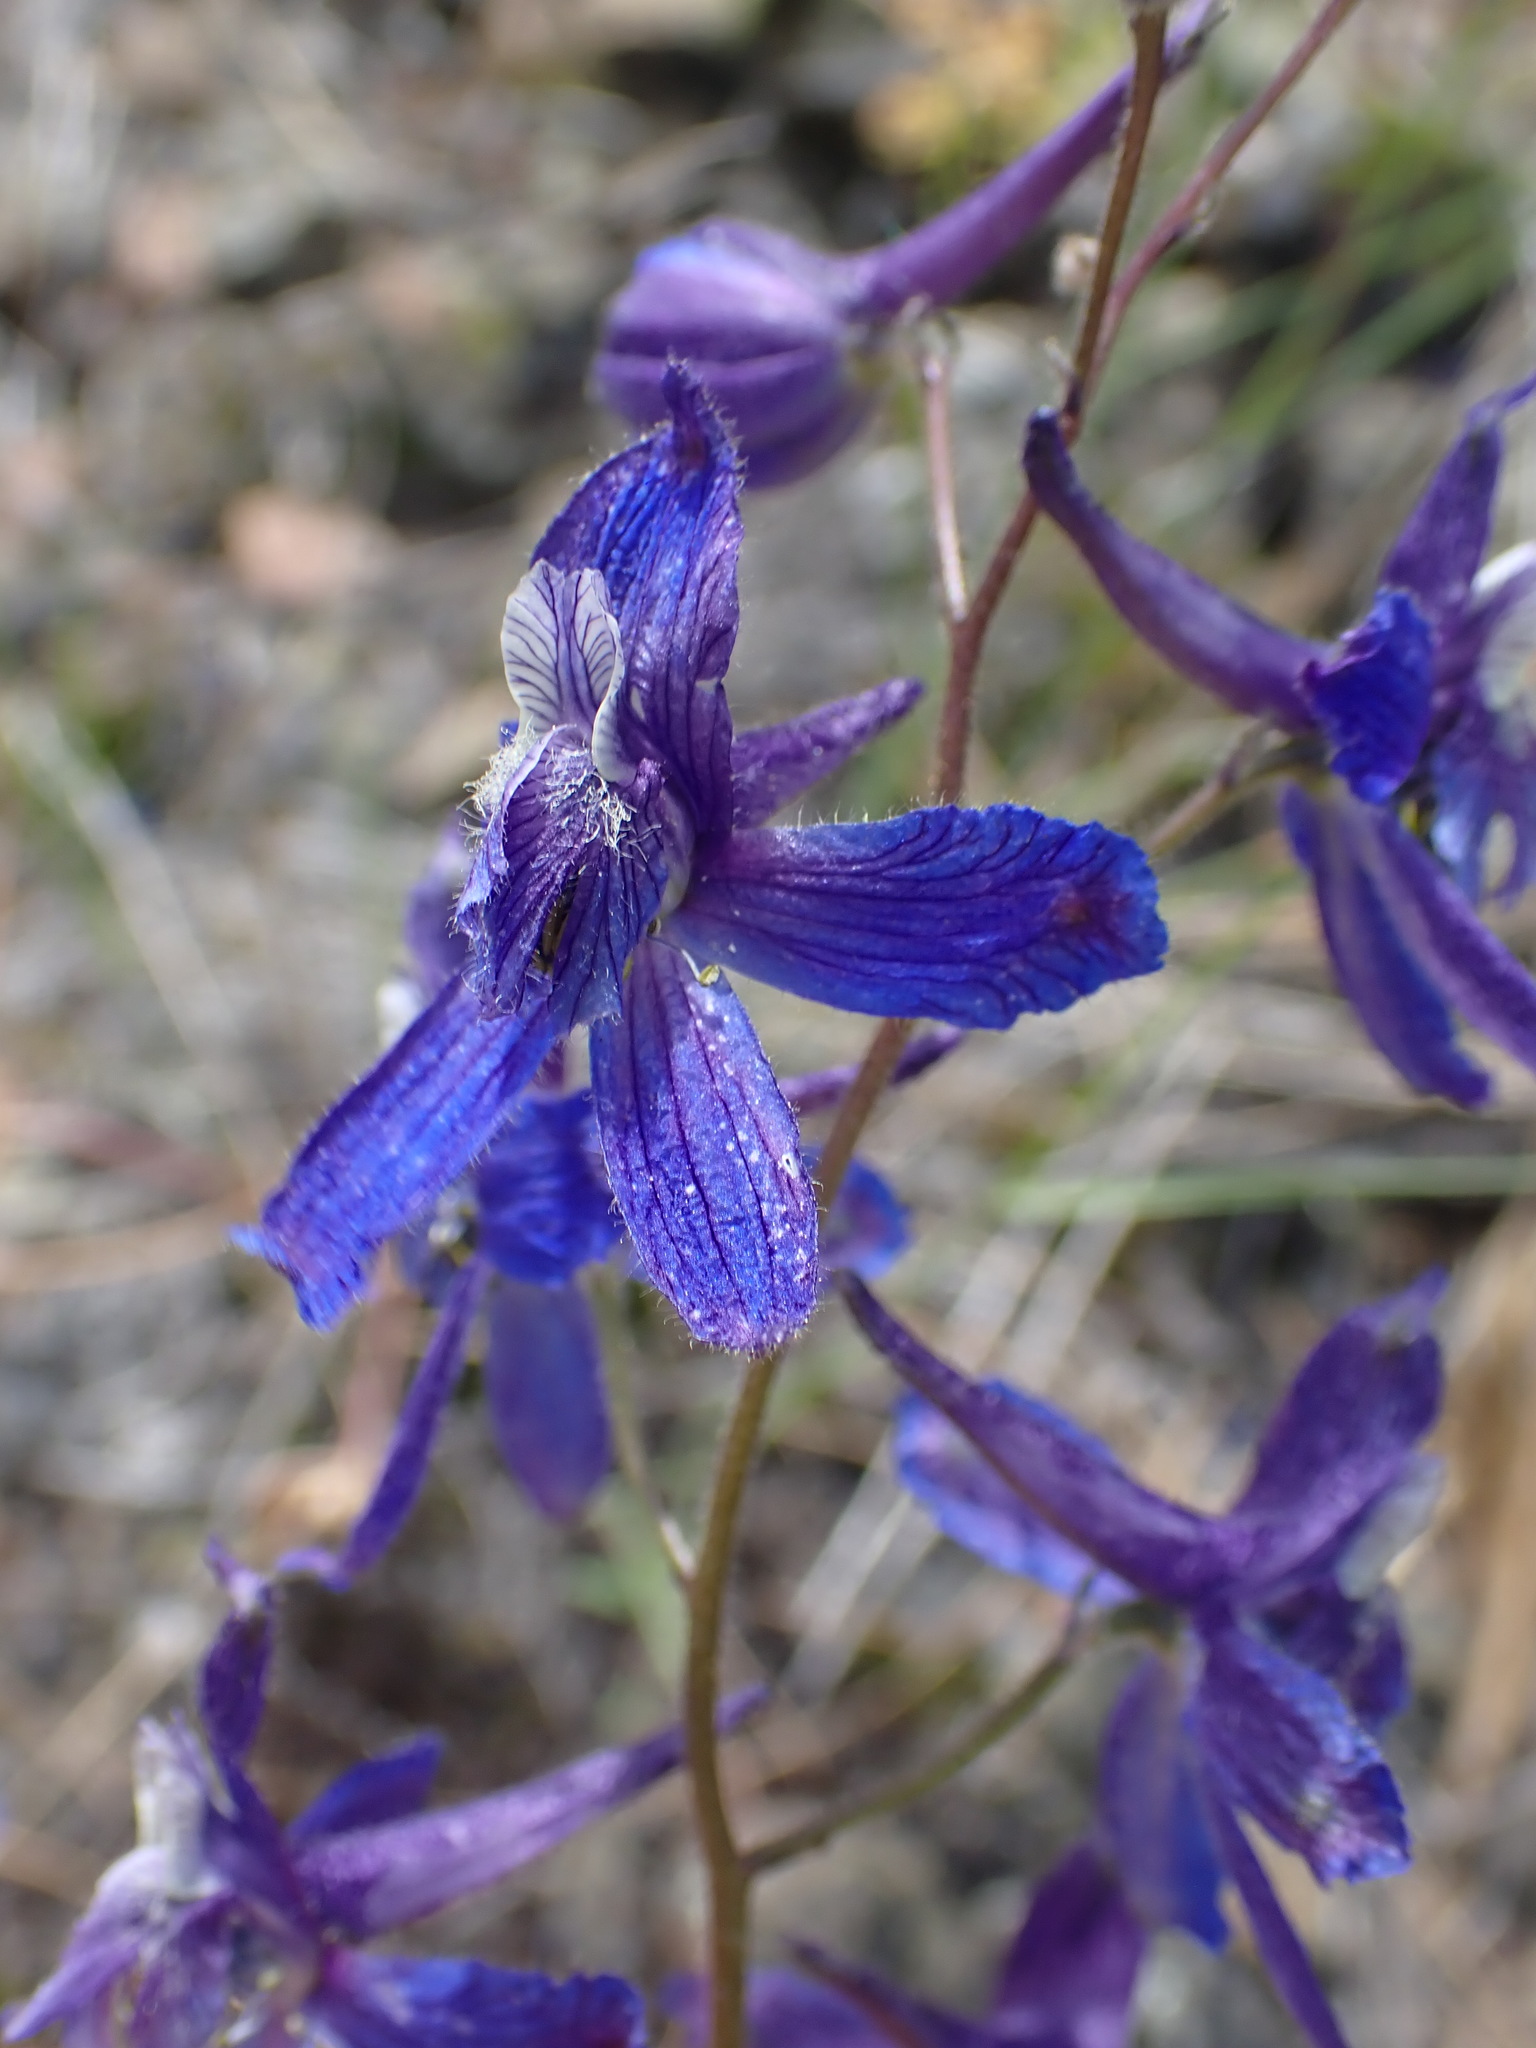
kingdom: Plantae
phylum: Tracheophyta
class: Magnoliopsida
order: Ranunculales
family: Ranunculaceae
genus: Delphinium
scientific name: Delphinium nuttallianum
